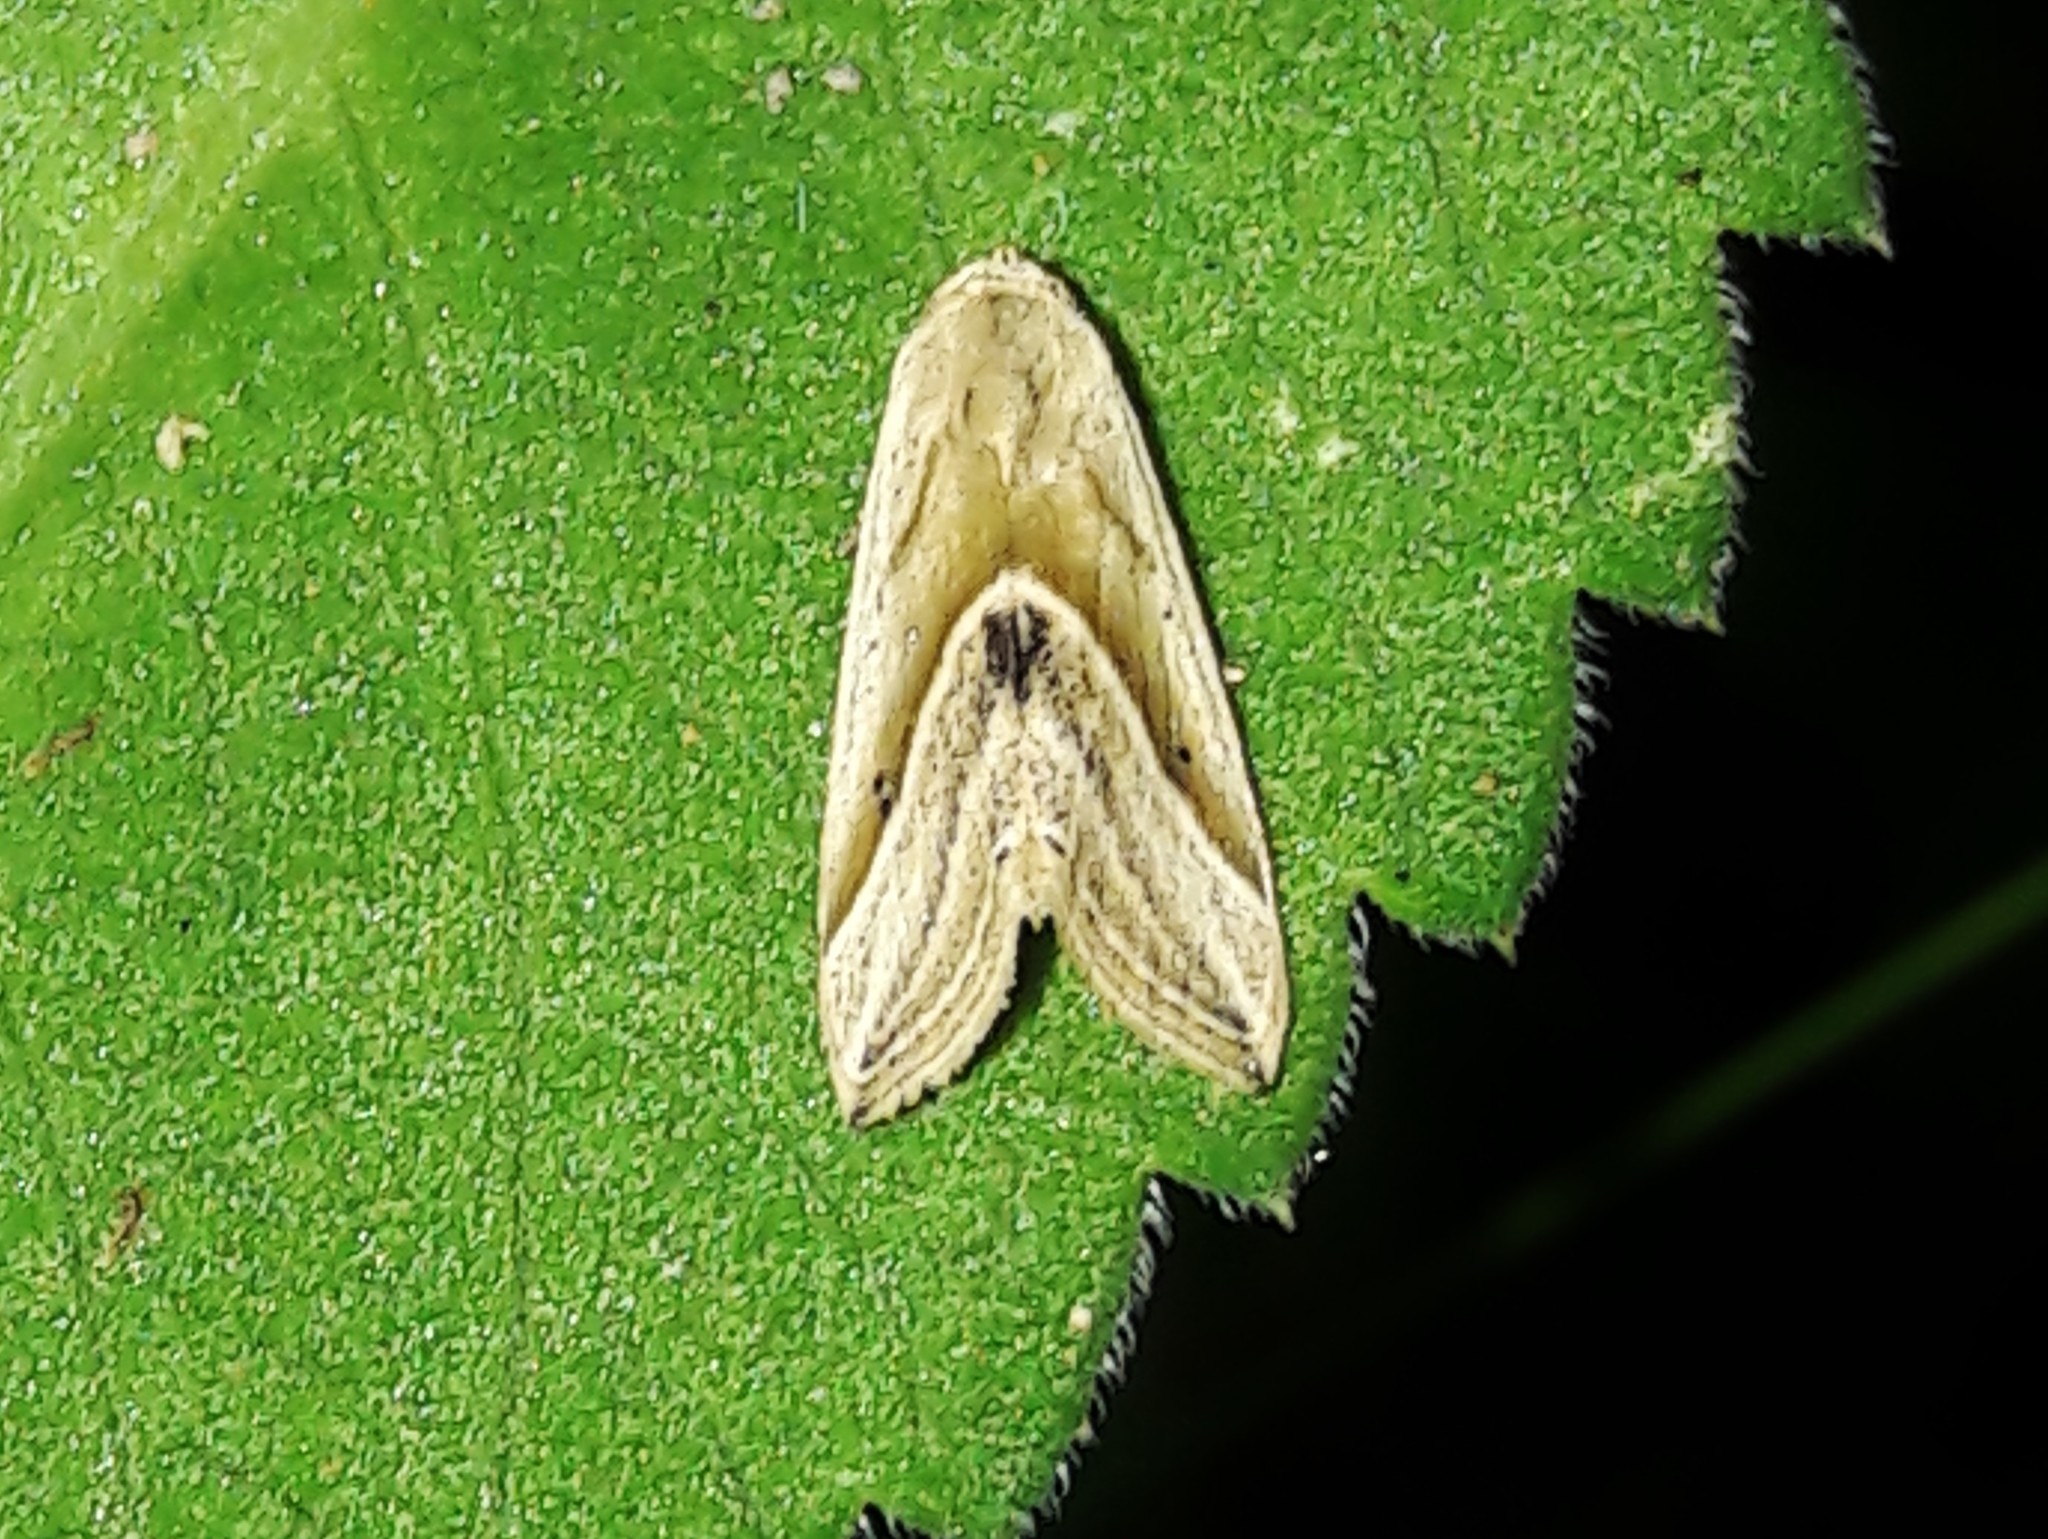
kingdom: Animalia
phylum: Arthropoda
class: Insecta
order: Lepidoptera
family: Noctuidae
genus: Micrathetis
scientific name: Micrathetis dasarada
